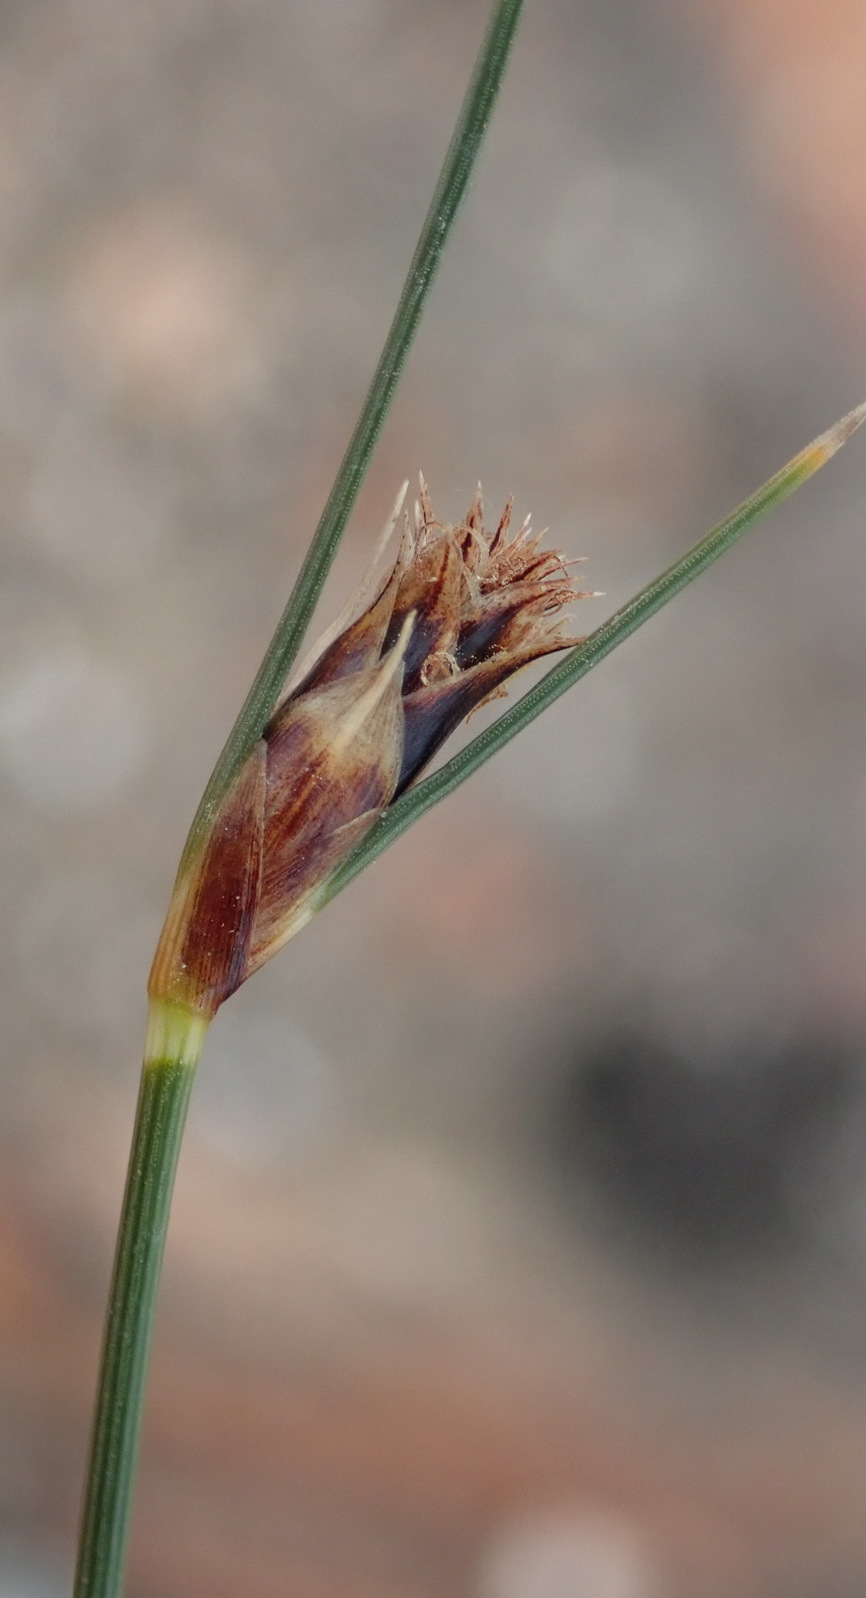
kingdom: Plantae
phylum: Tracheophyta
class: Liliopsida
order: Poales
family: Cyperaceae
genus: Ficinia
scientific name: Ficinia nigrescens
